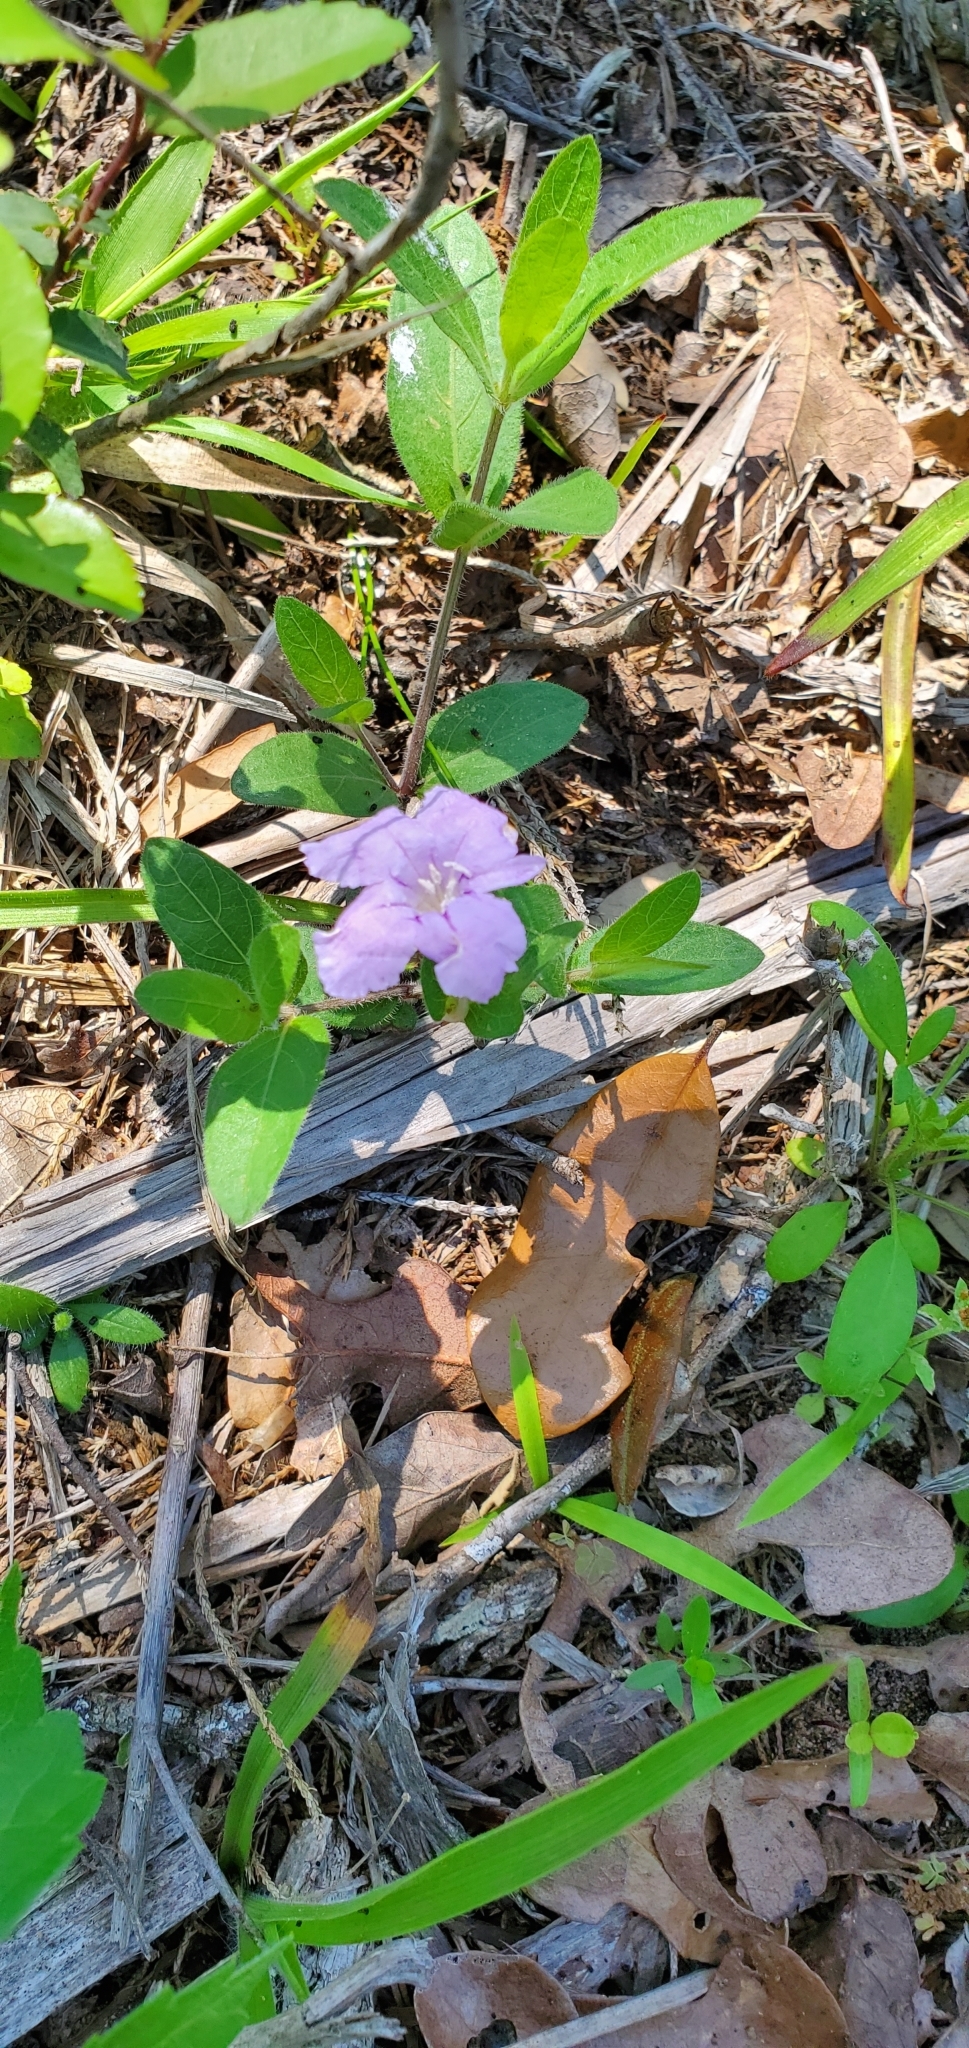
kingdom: Plantae
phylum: Tracheophyta
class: Magnoliopsida
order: Lamiales
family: Acanthaceae
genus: Ruellia
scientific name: Ruellia humilis
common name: Fringe-leaf ruellia
